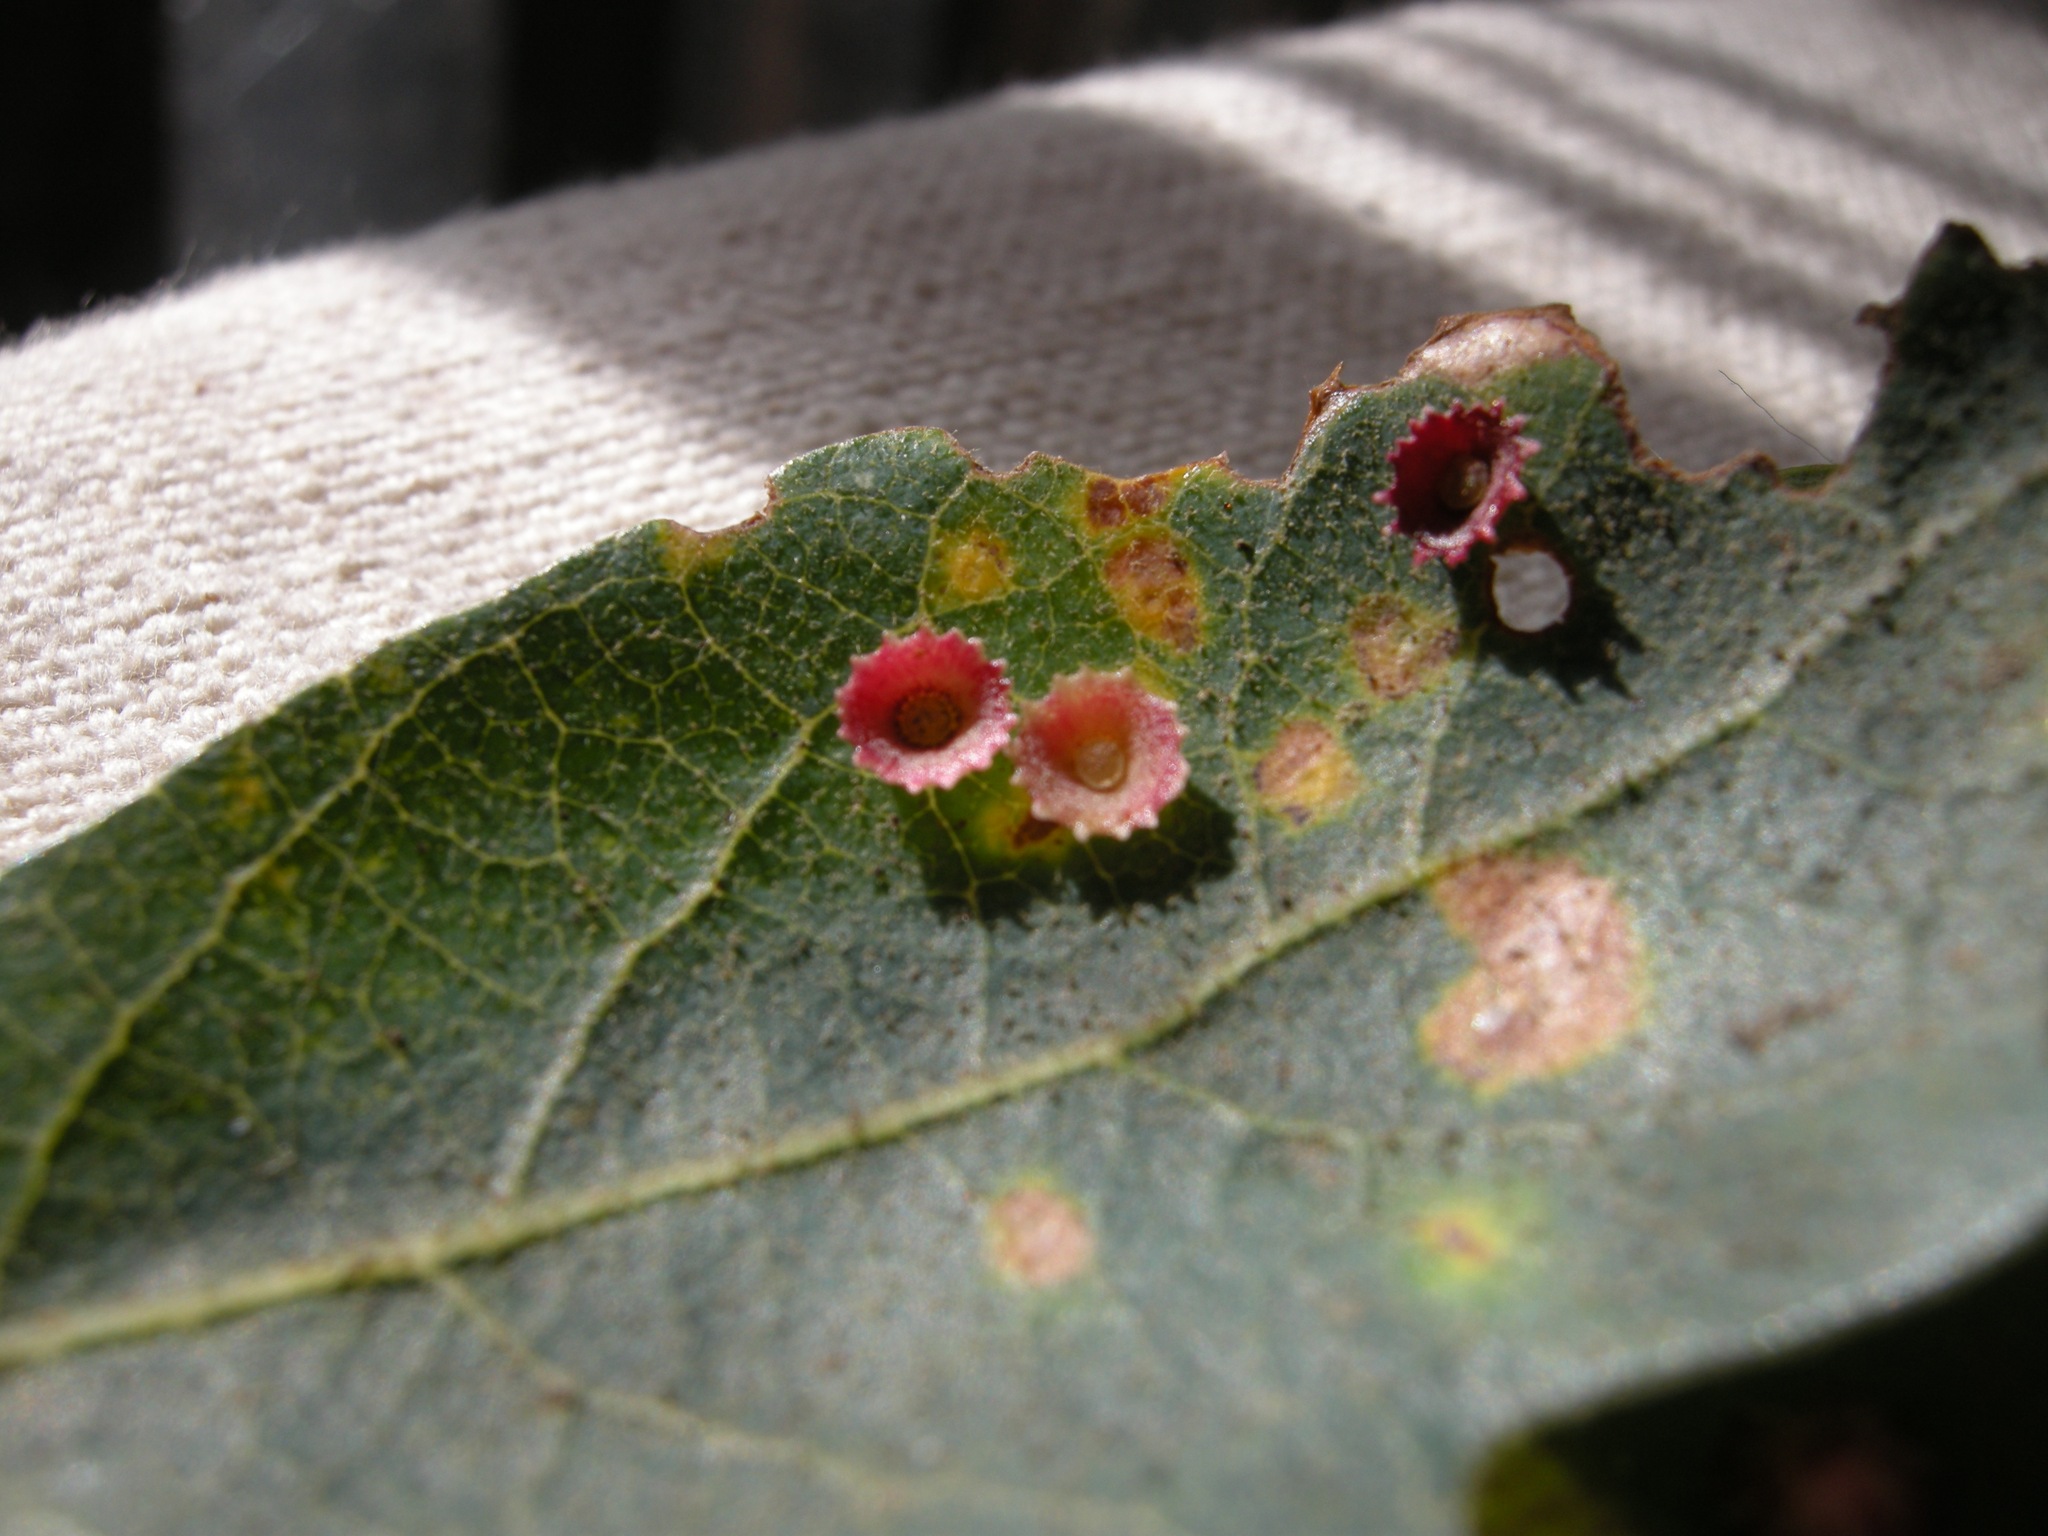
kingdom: Animalia
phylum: Arthropoda
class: Insecta
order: Hymenoptera
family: Cynipidae
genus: Andricus
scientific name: Andricus
